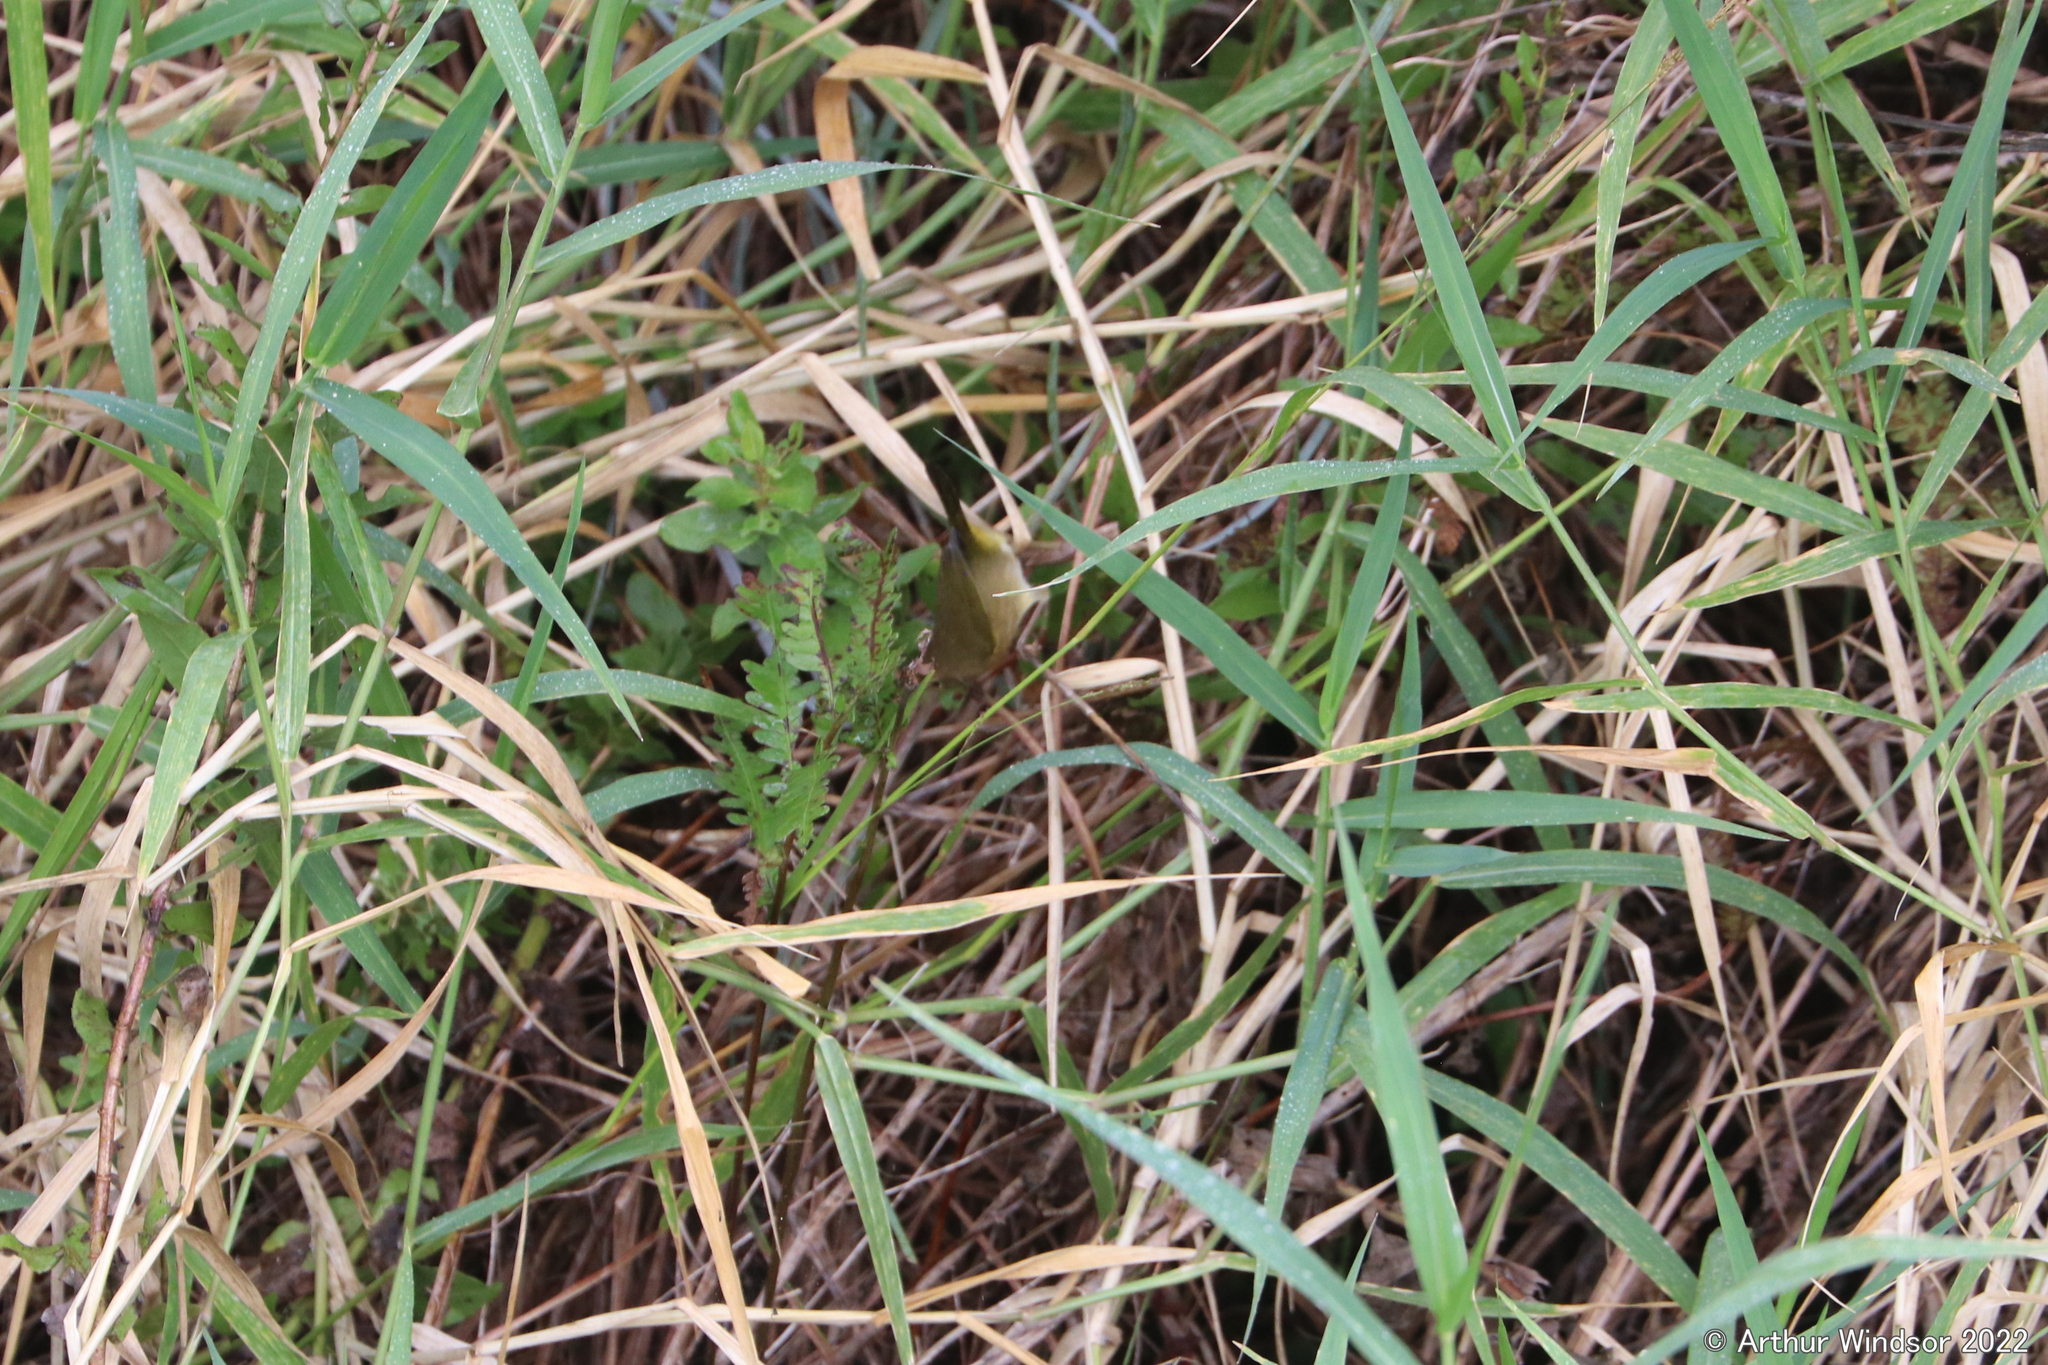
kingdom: Animalia
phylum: Chordata
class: Aves
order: Passeriformes
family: Parulidae
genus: Geothlypis
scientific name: Geothlypis trichas
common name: Common yellowthroat
